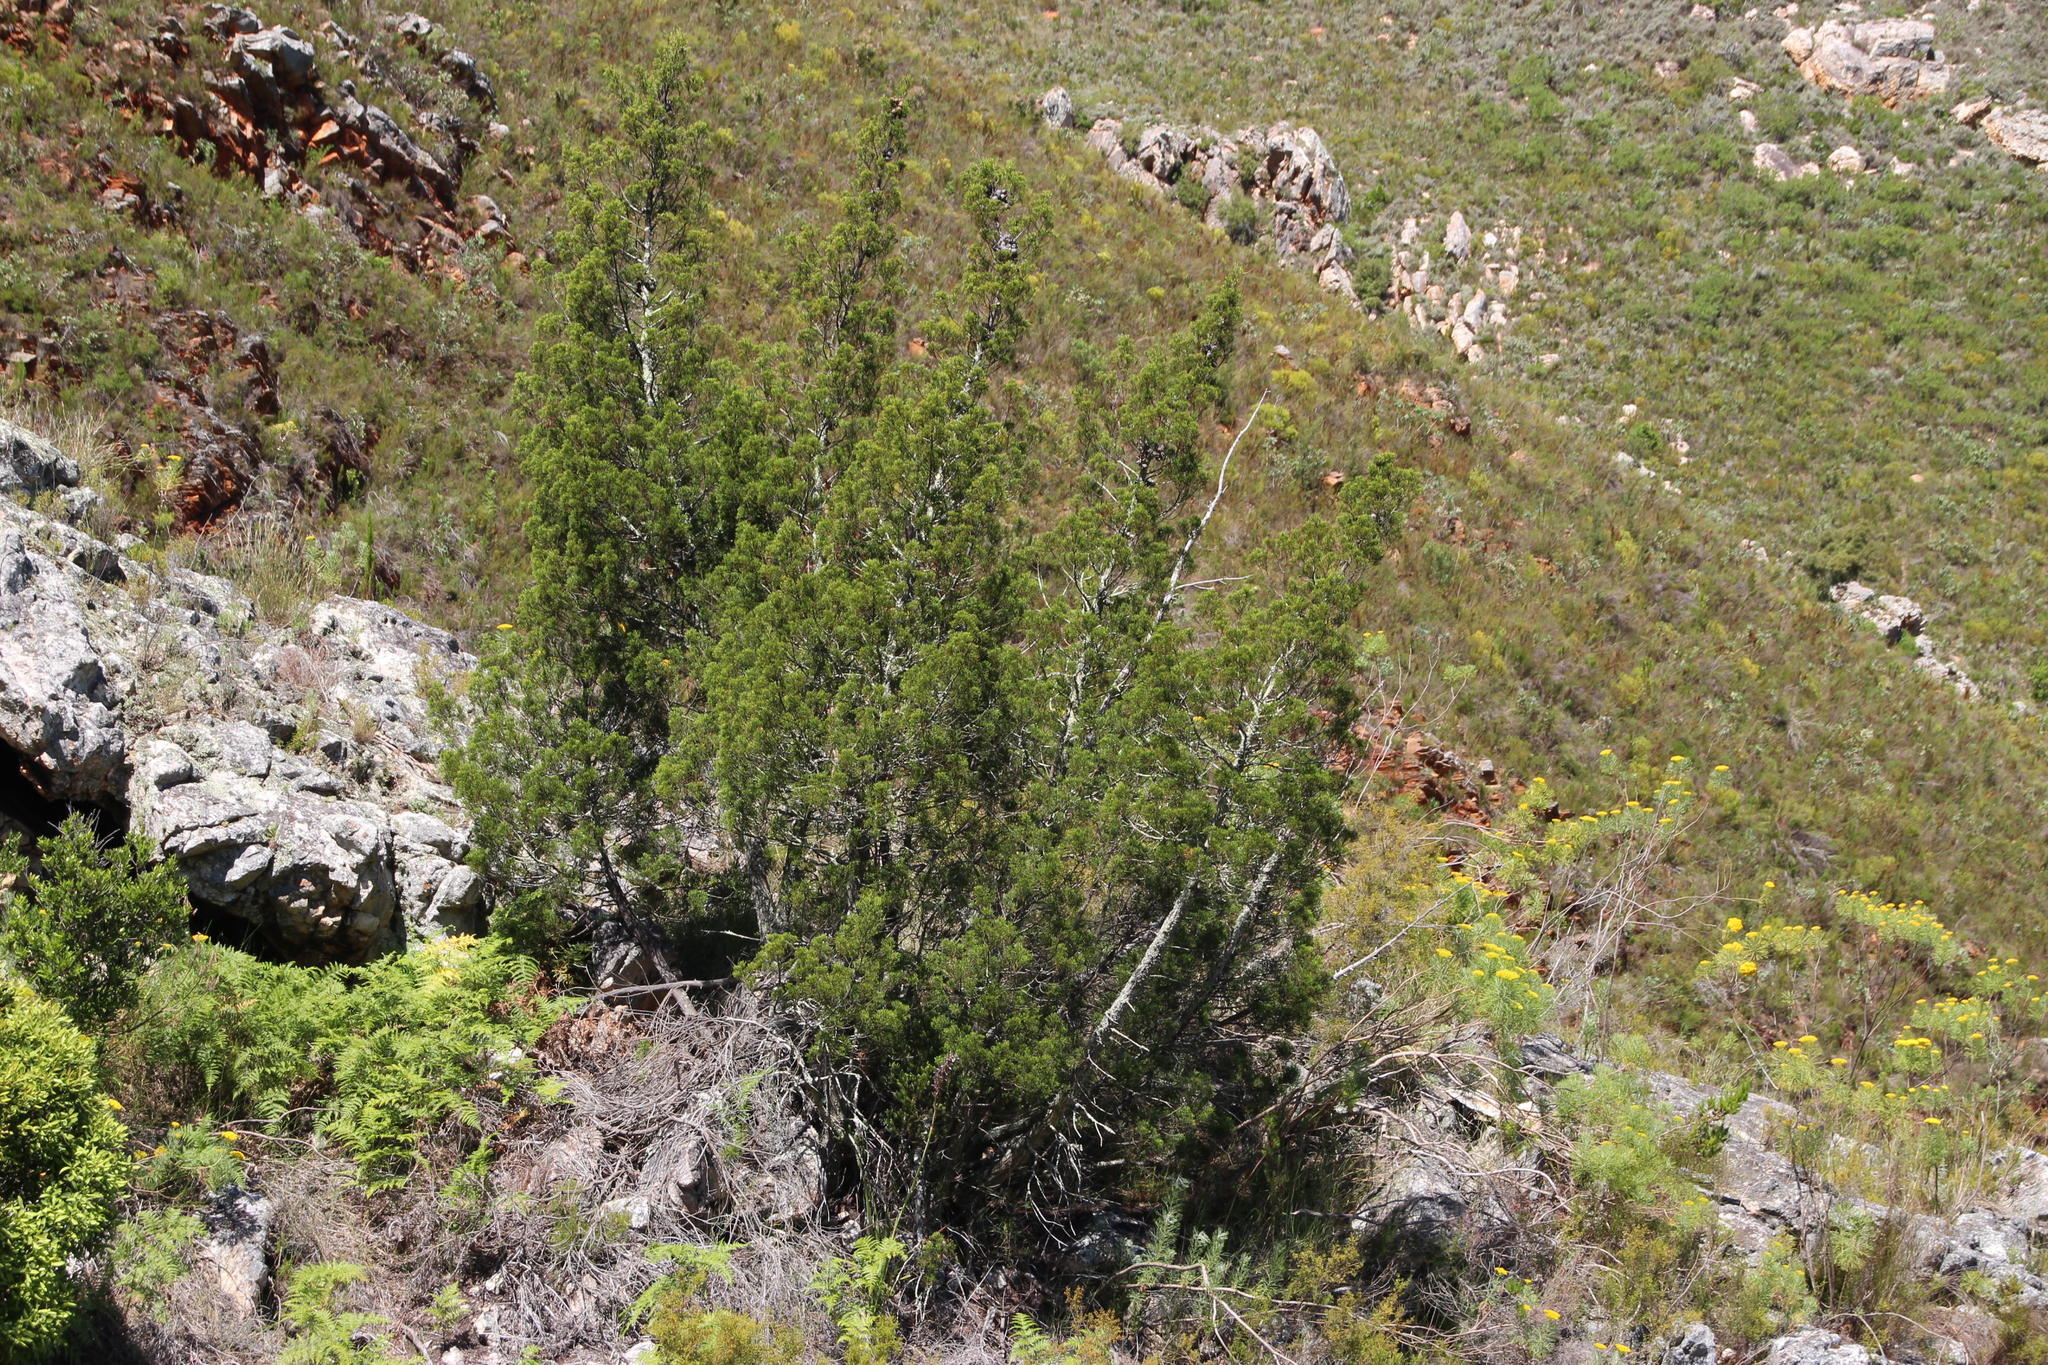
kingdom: Plantae
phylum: Tracheophyta
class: Pinopsida
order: Pinales
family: Cupressaceae
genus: Widdringtonia
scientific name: Widdringtonia nodiflora
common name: Cape cypress
